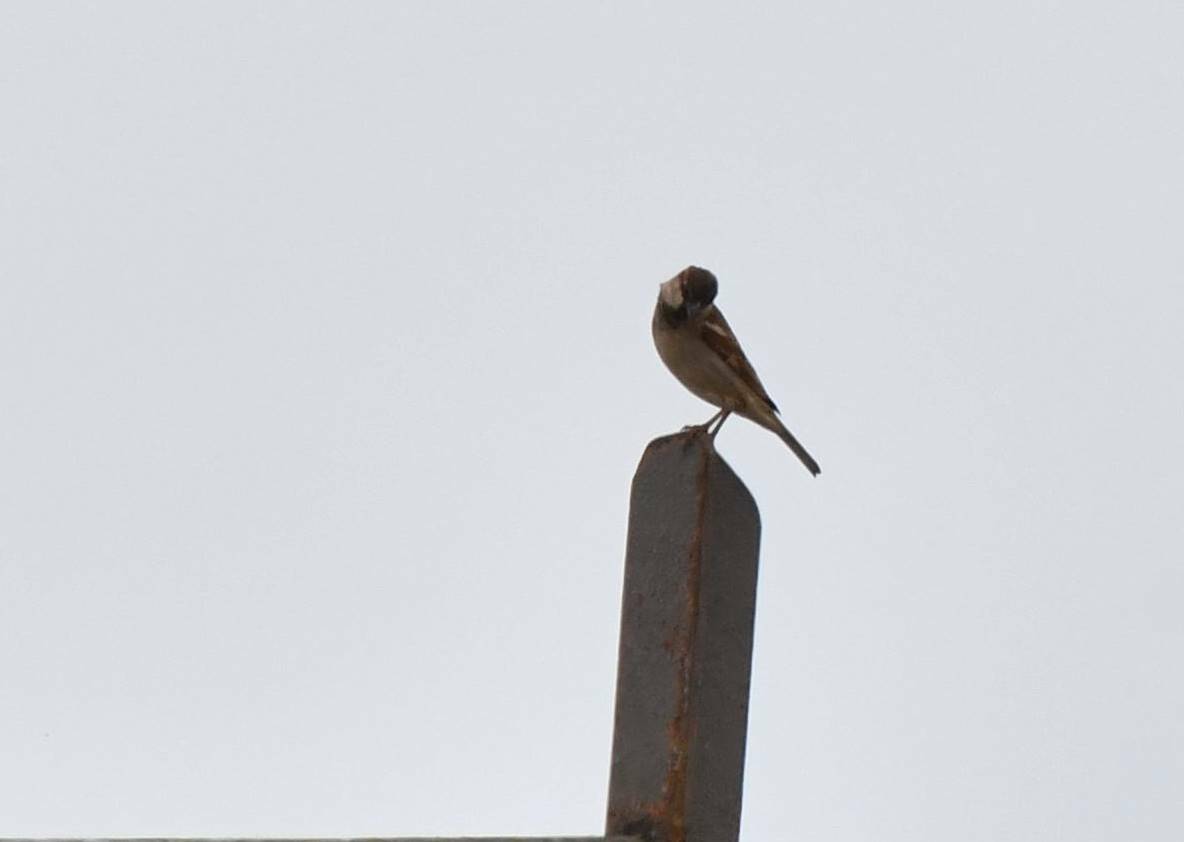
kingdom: Animalia
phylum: Chordata
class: Aves
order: Passeriformes
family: Passeridae
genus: Passer
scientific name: Passer domesticus
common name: House sparrow
